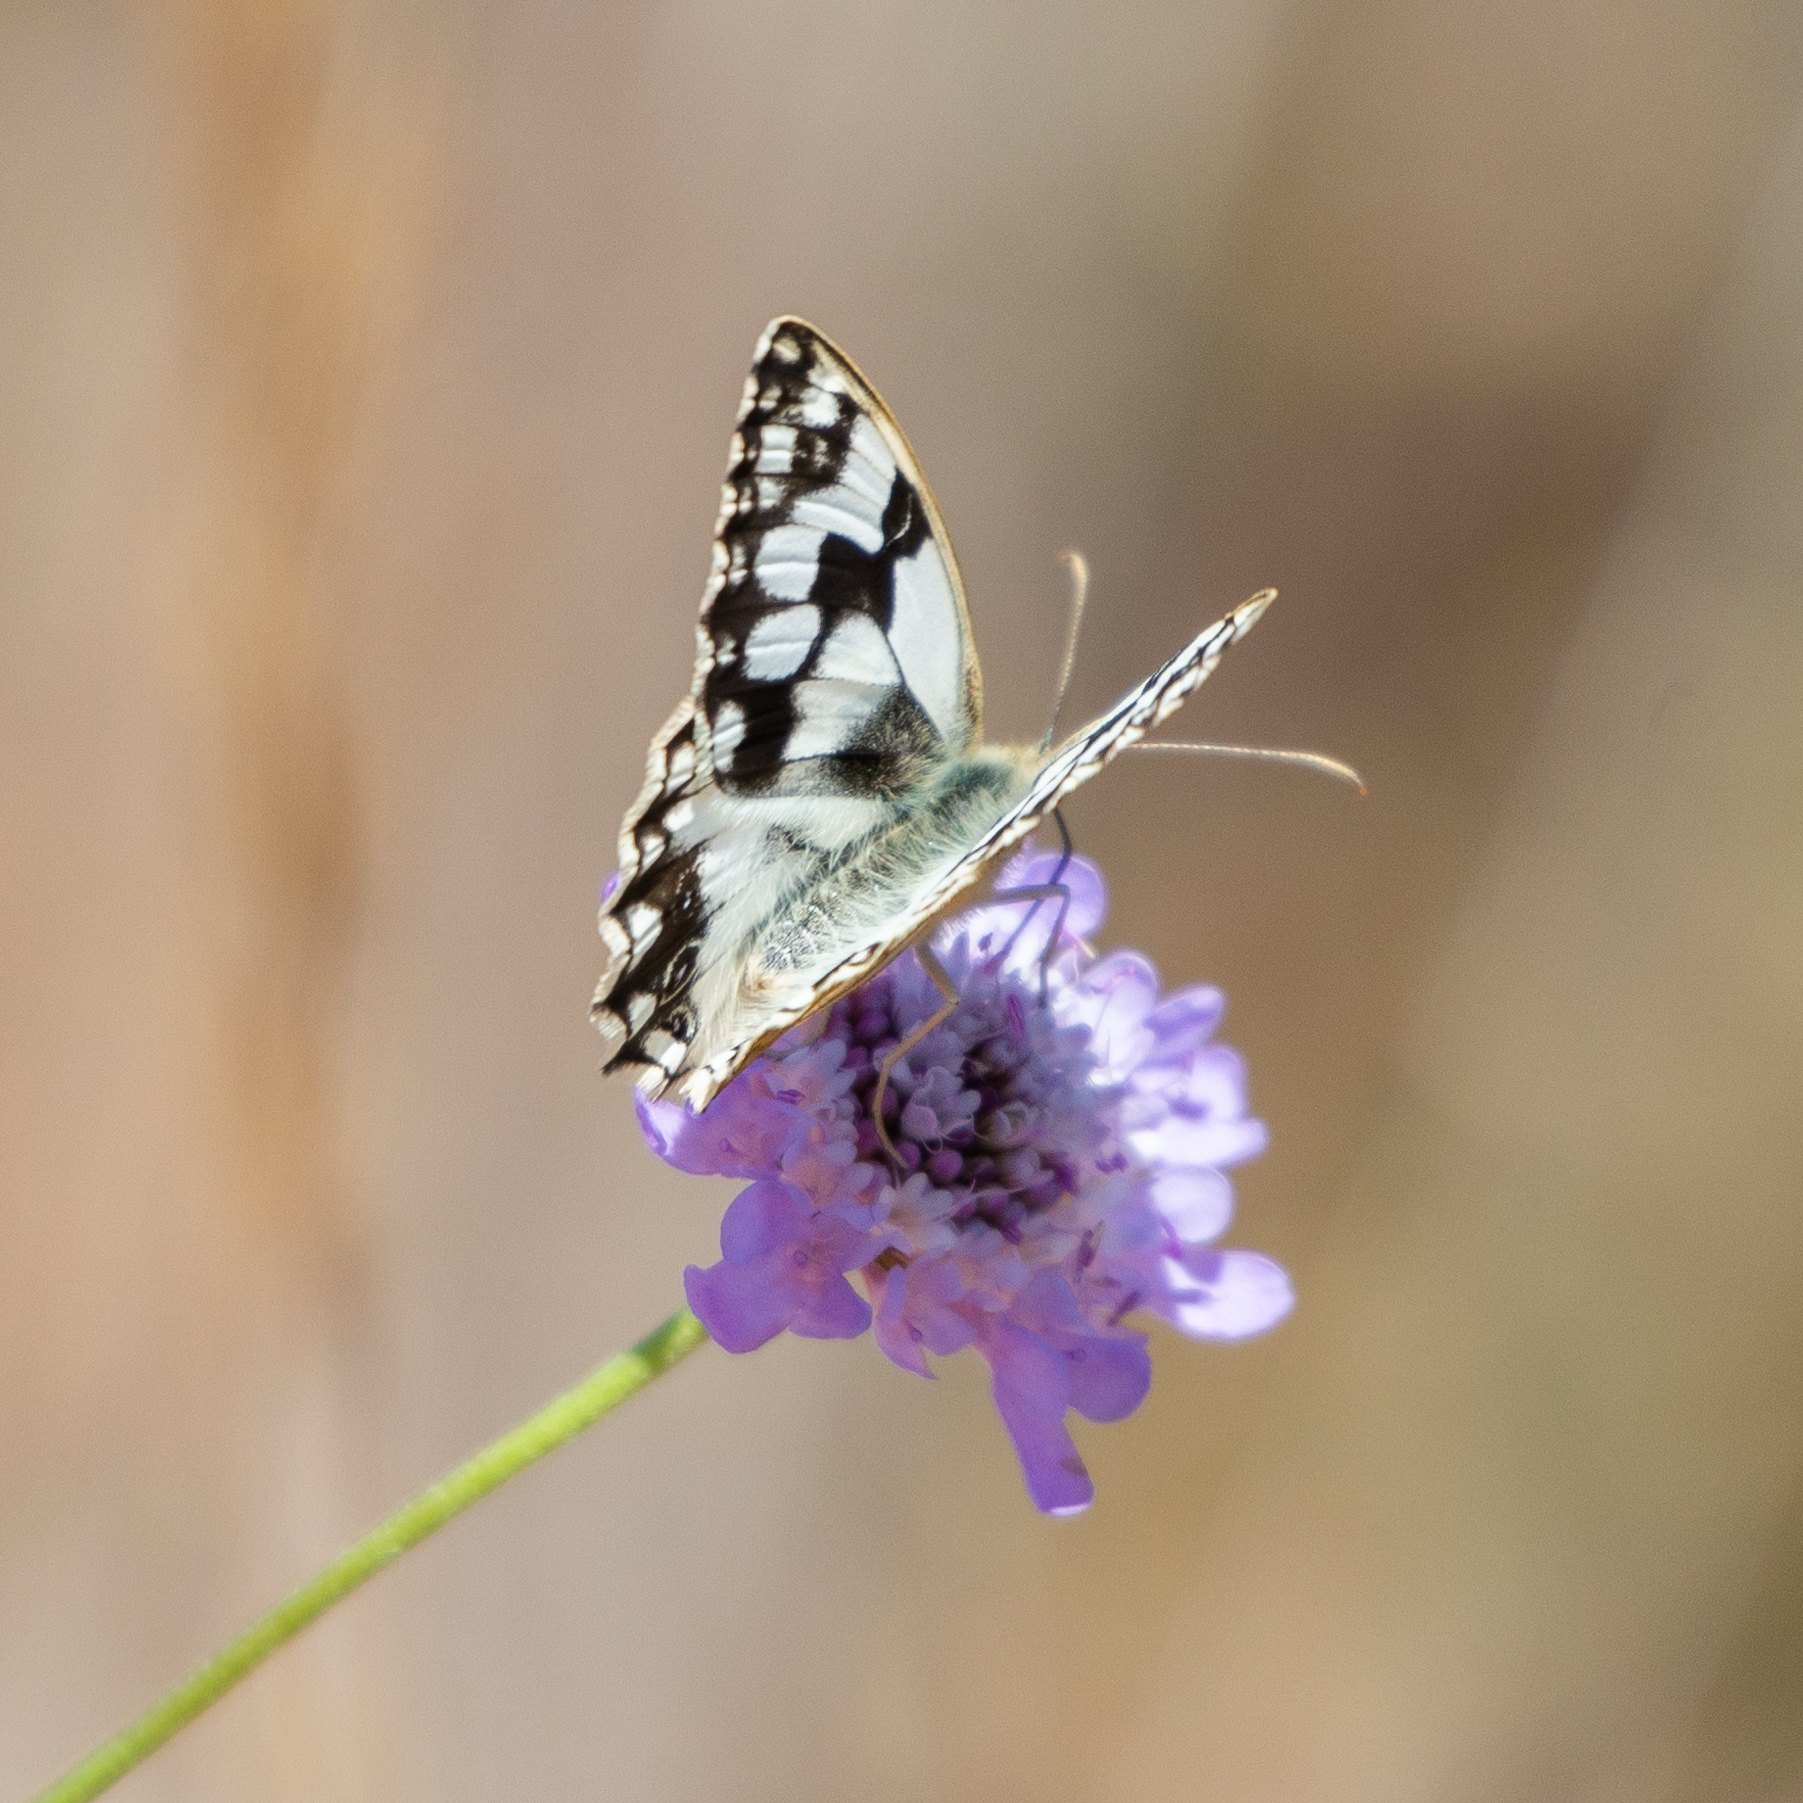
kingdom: Animalia
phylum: Arthropoda
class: Insecta
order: Lepidoptera
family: Nymphalidae
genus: Melanargia
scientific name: Melanargia lachesis
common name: Iberian marbled white
